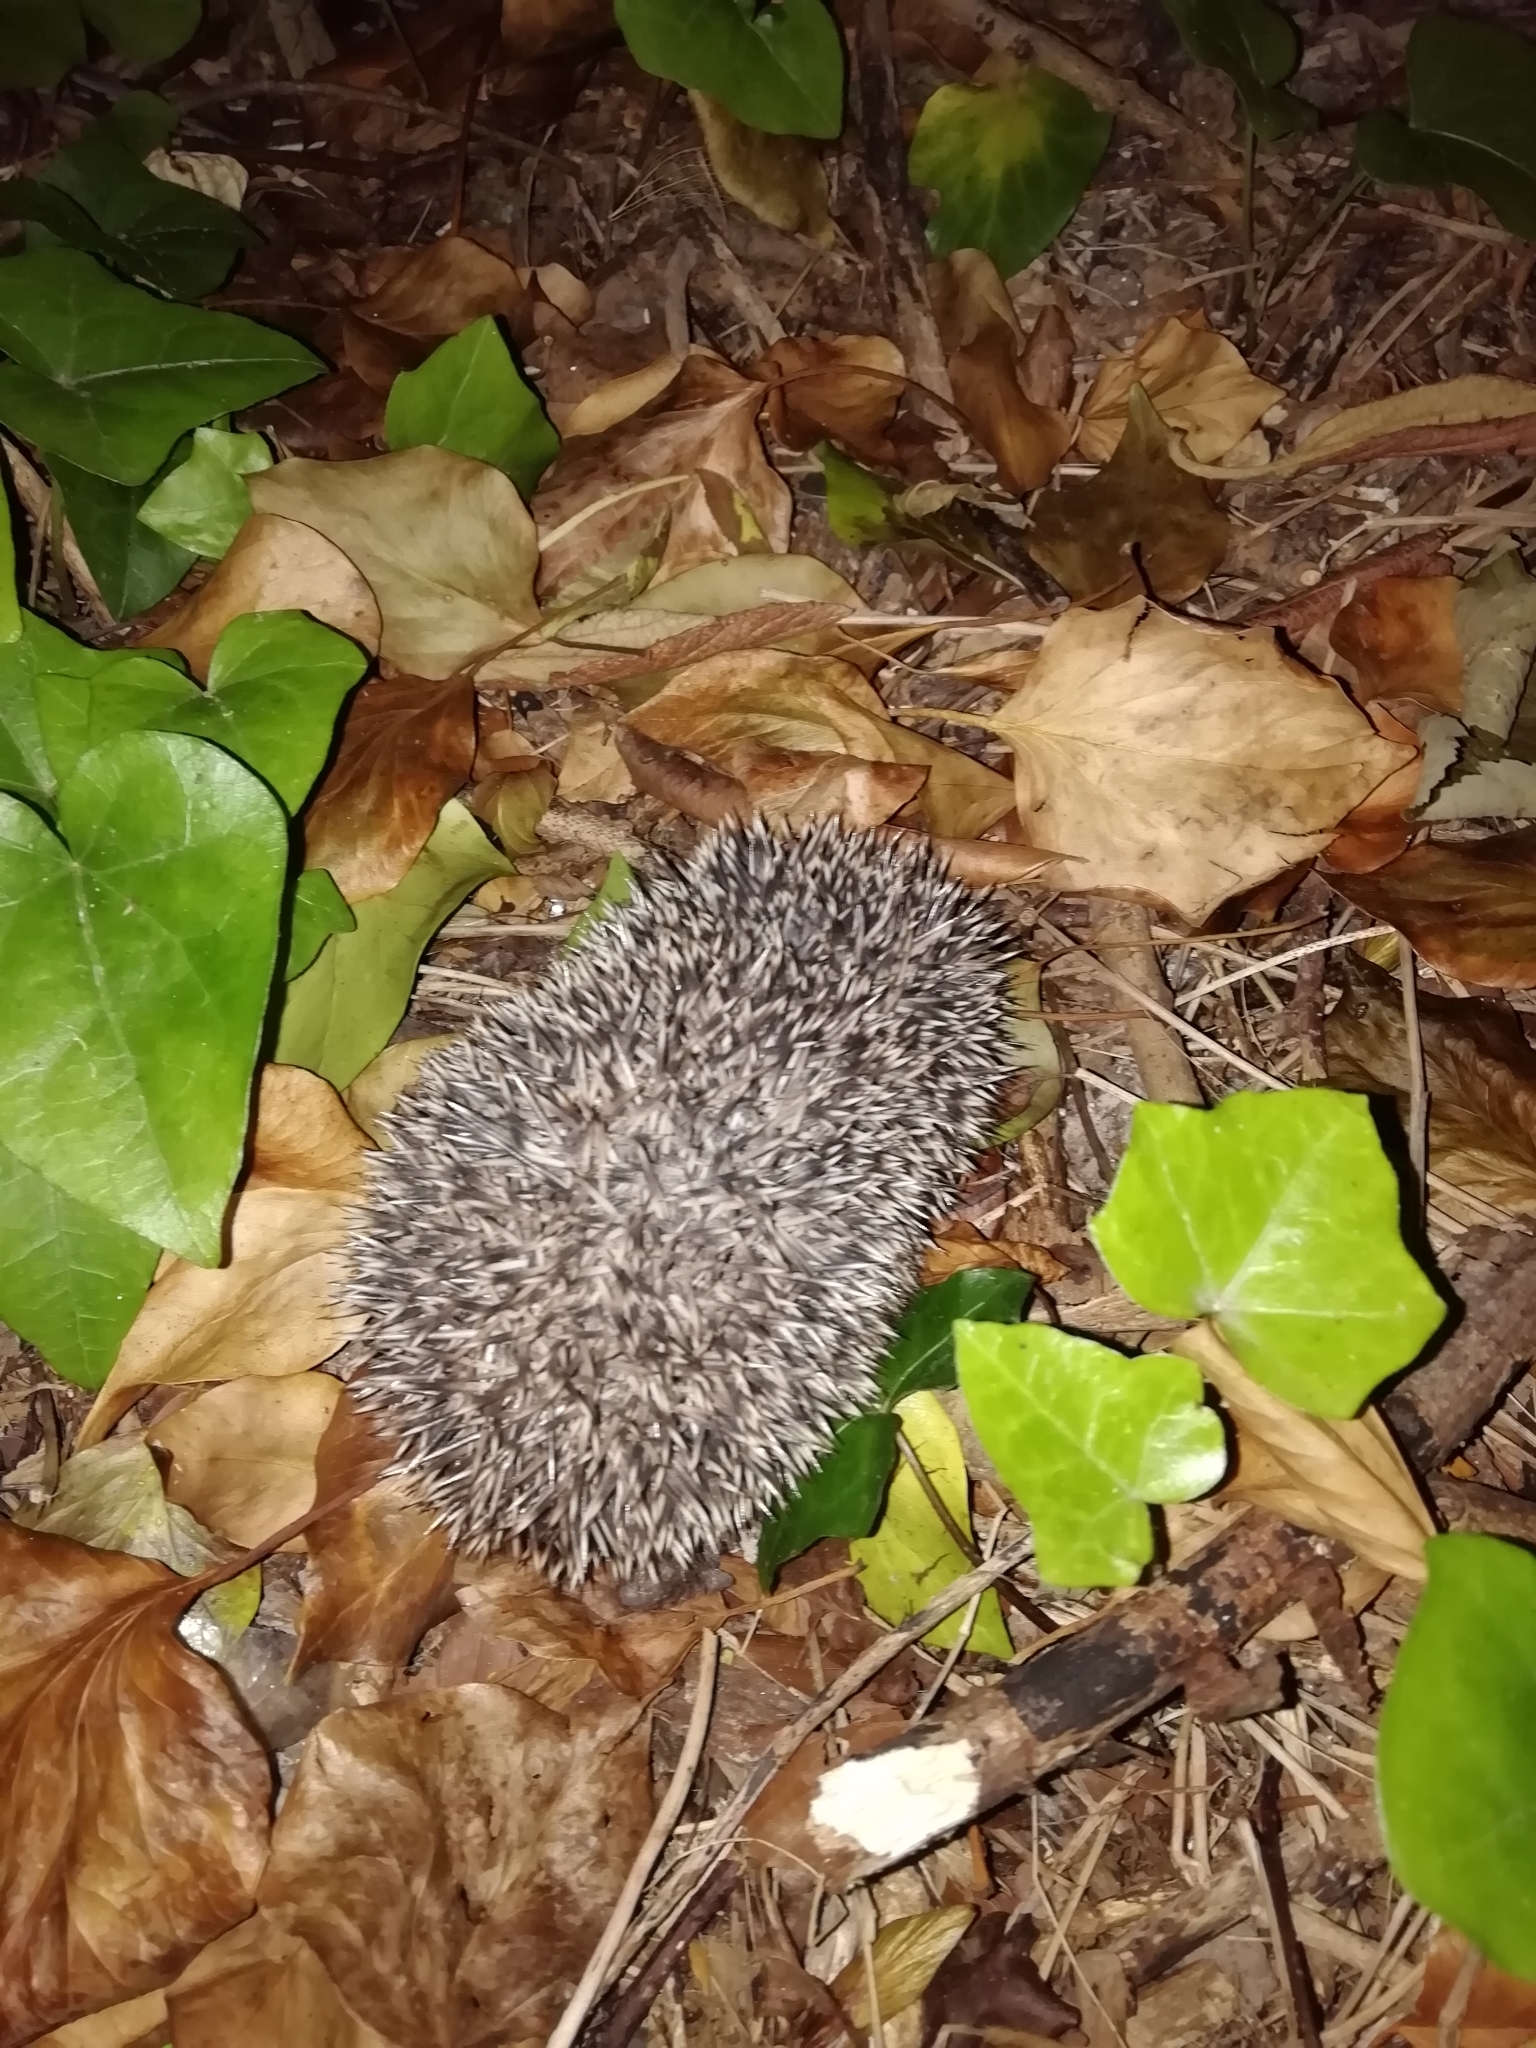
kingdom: Animalia
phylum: Chordata
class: Mammalia
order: Erinaceomorpha
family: Erinaceidae
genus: Erinaceus
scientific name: Erinaceus europaeus
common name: West european hedgehog
